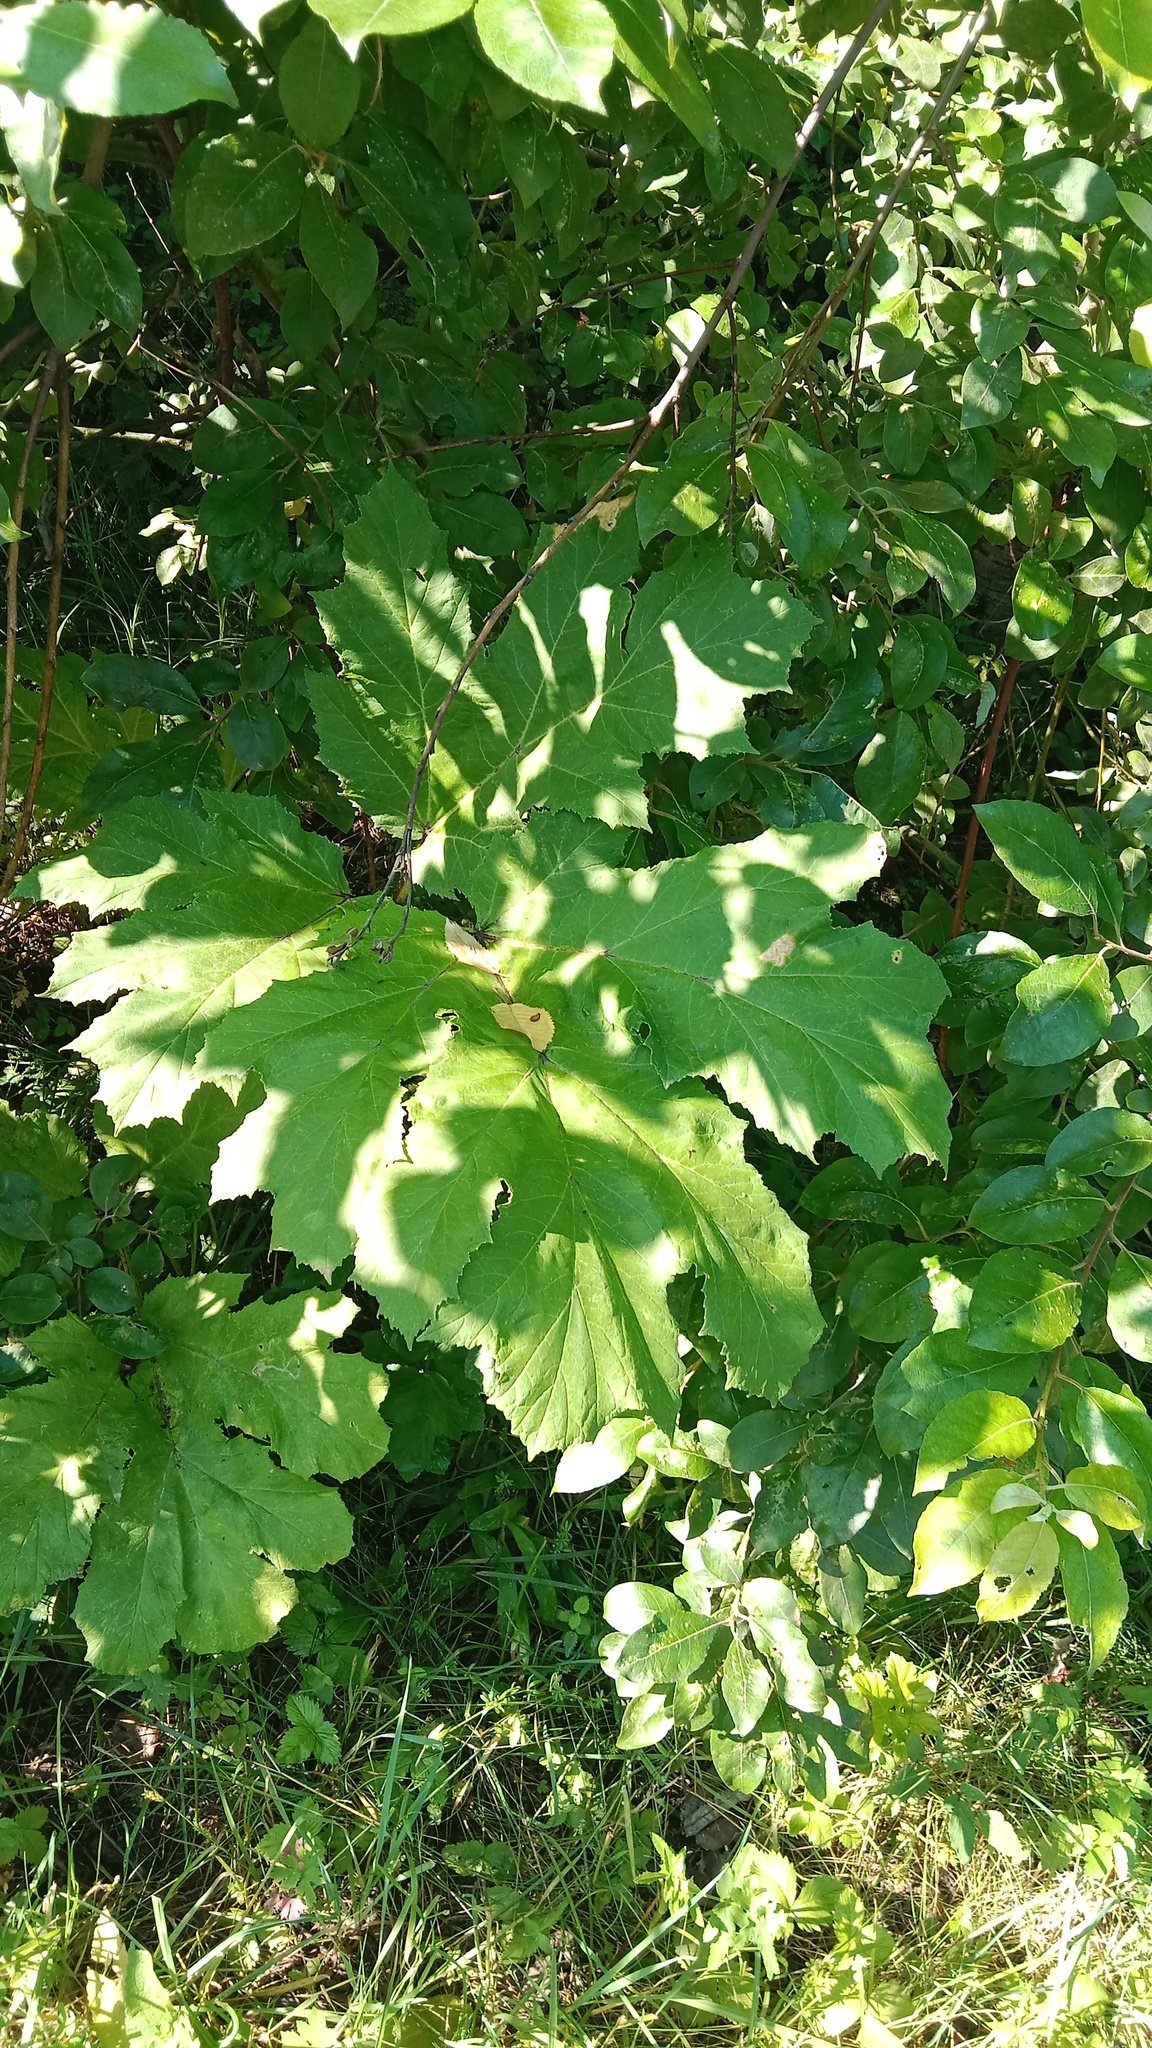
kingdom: Plantae
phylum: Tracheophyta
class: Magnoliopsida
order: Apiales
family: Apiaceae
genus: Heracleum
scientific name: Heracleum sosnowskyi
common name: Sosnowsky's hogweed
